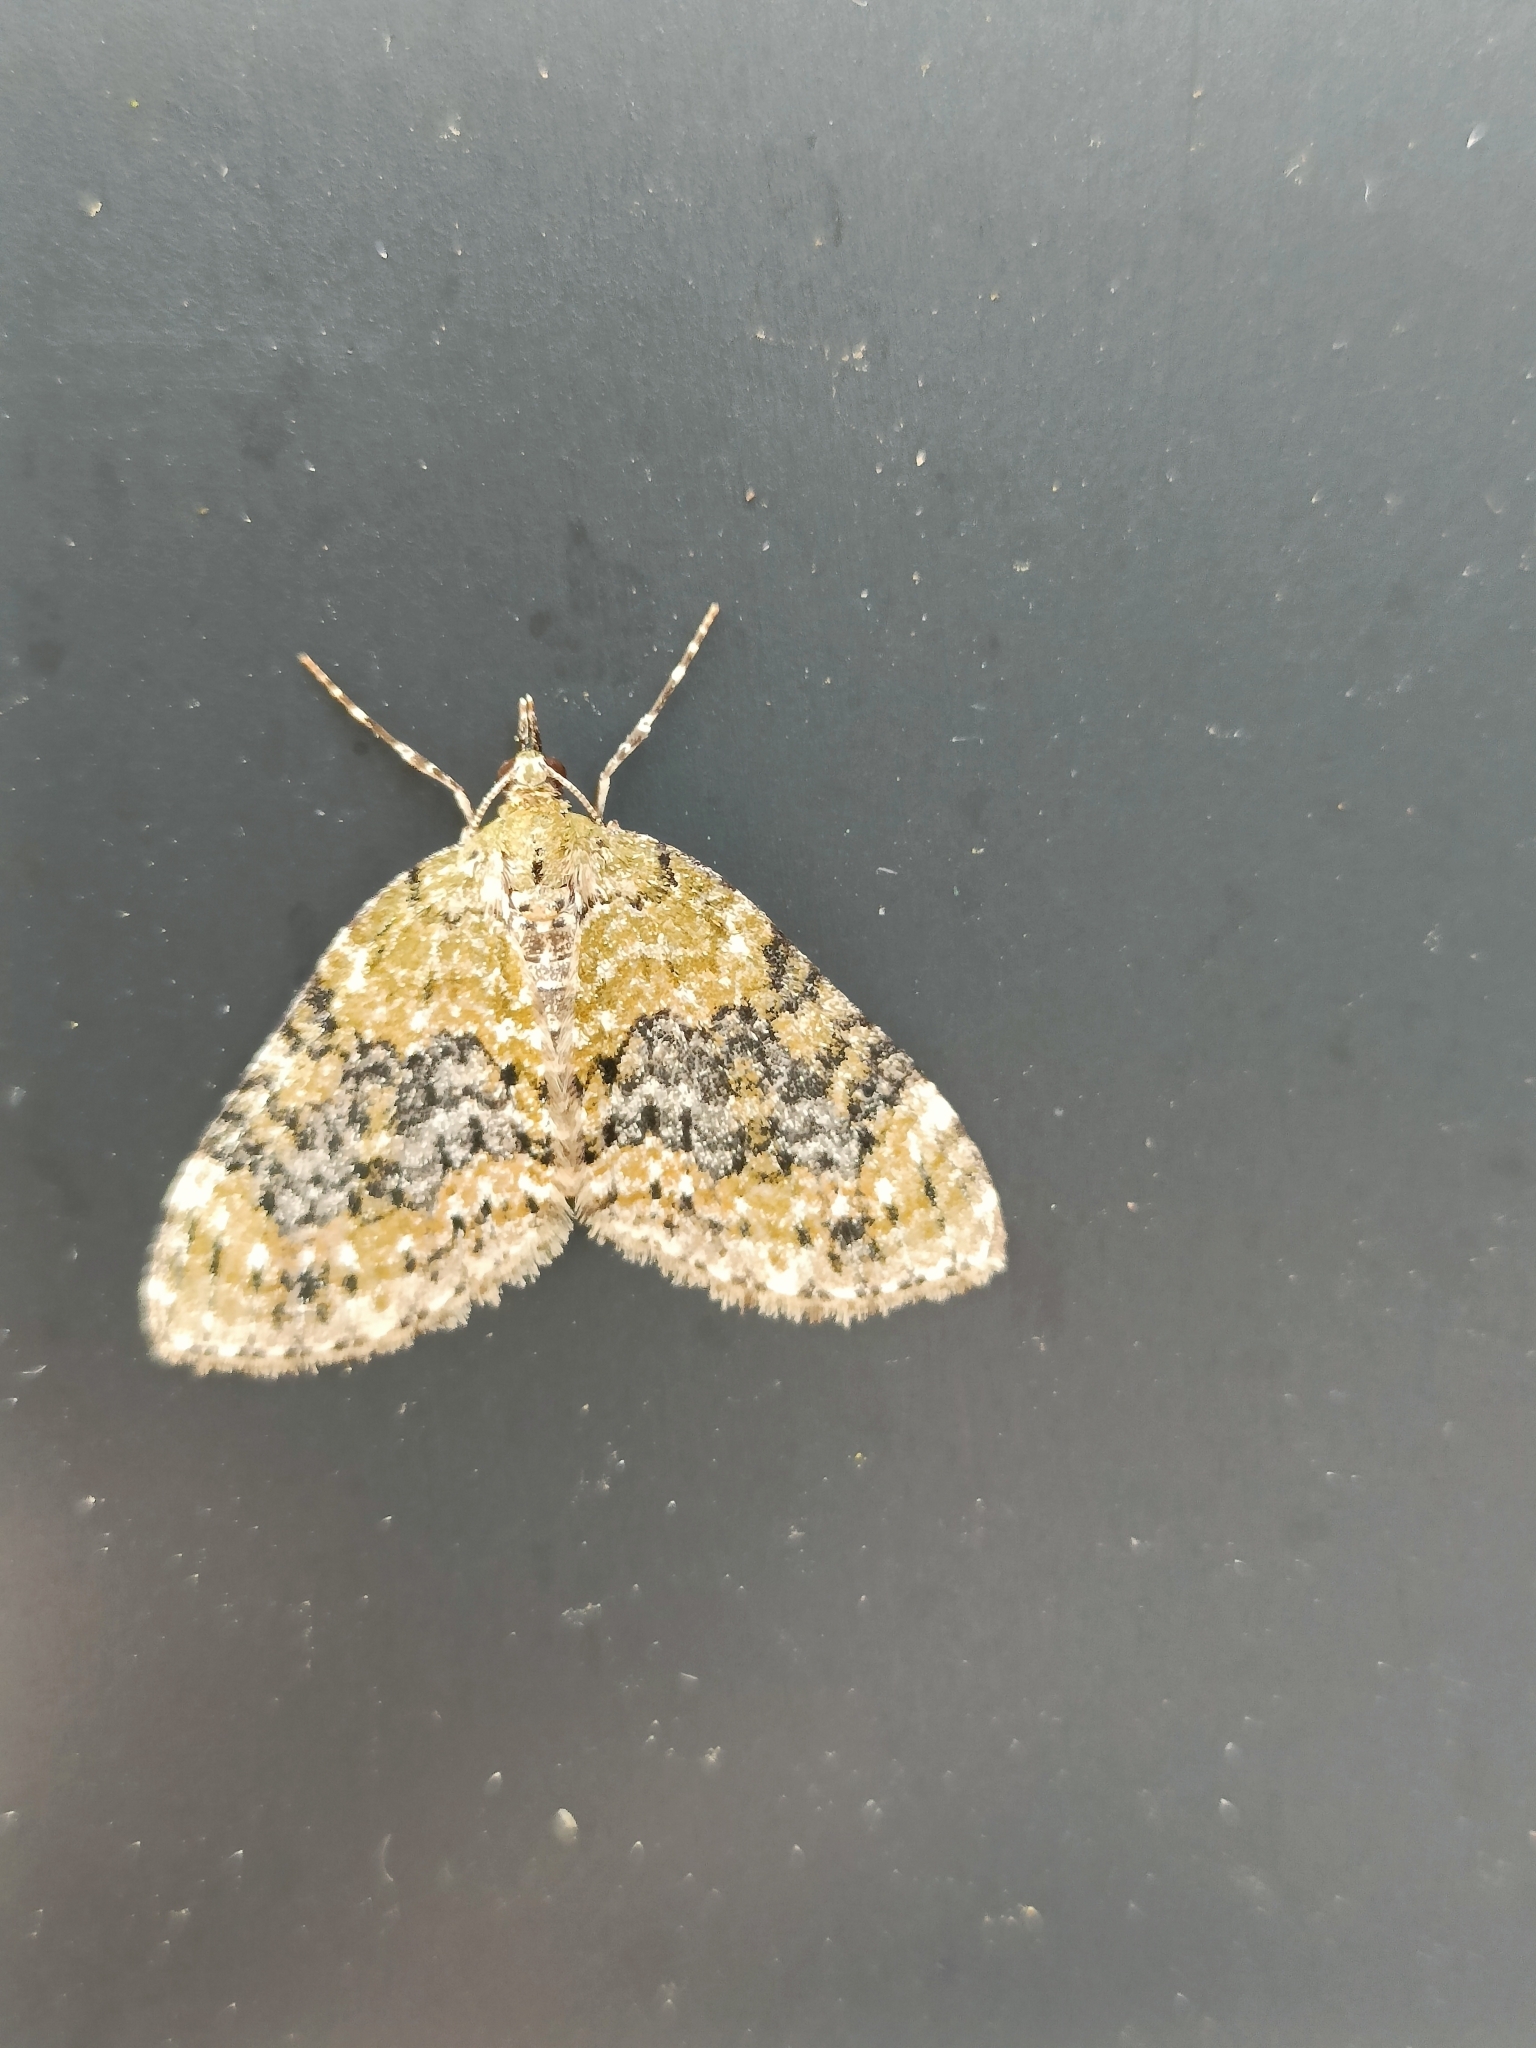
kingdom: Animalia
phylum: Arthropoda
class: Insecta
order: Lepidoptera
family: Geometridae
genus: Acasis
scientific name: Acasis viretata
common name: Yellow-barred brindle
